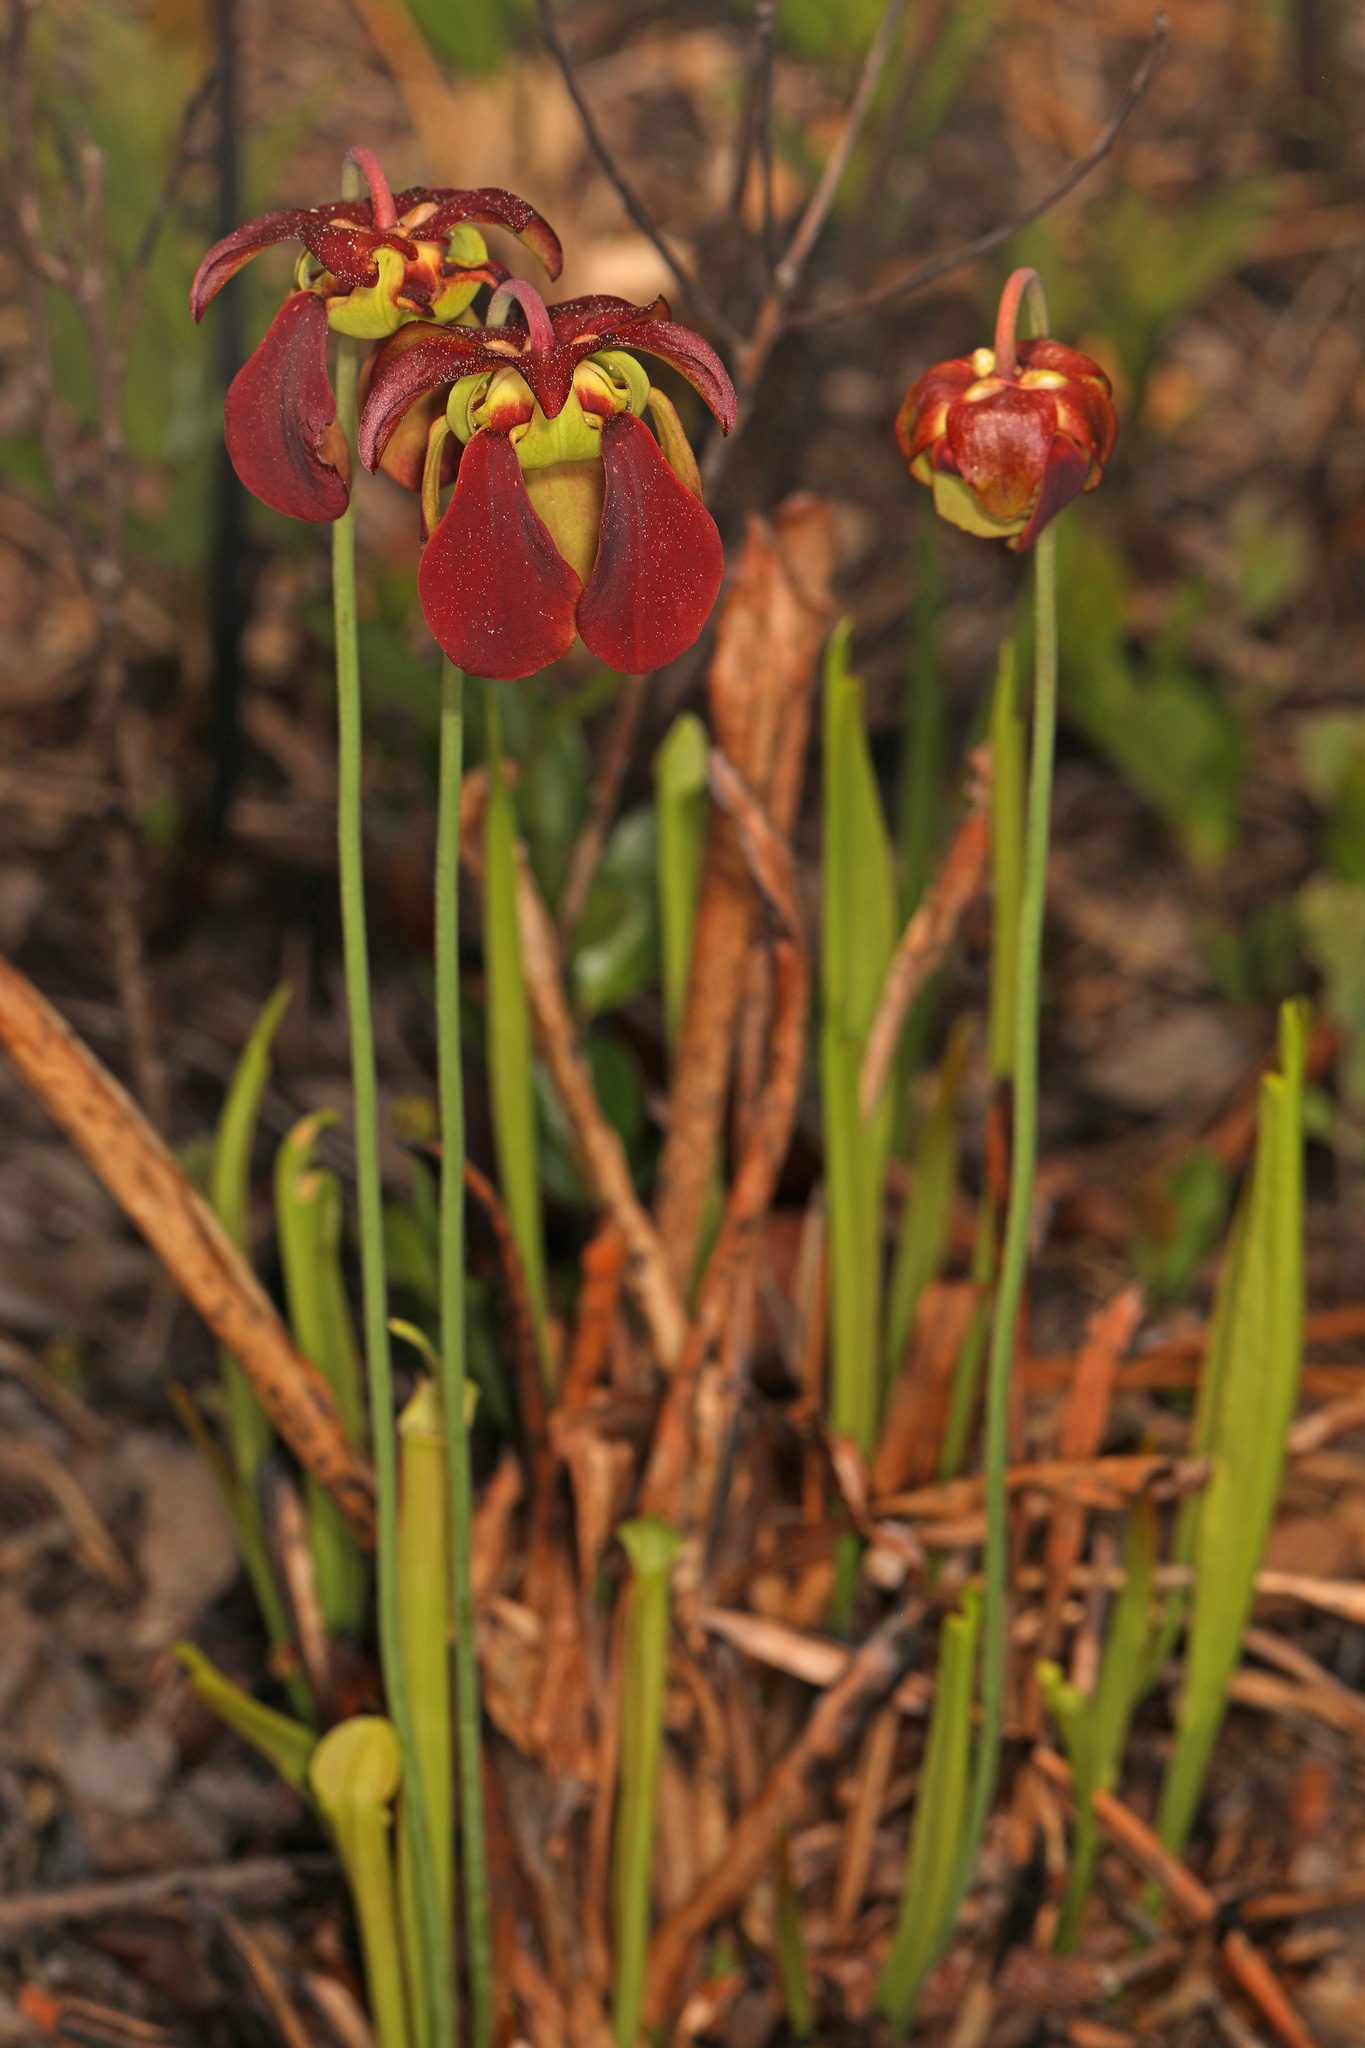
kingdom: Plantae
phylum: Tracheophyta
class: Magnoliopsida
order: Ericales
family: Sarraceniaceae
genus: Sarracenia
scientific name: Sarracenia rubra
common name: Sweet pitcherplant
